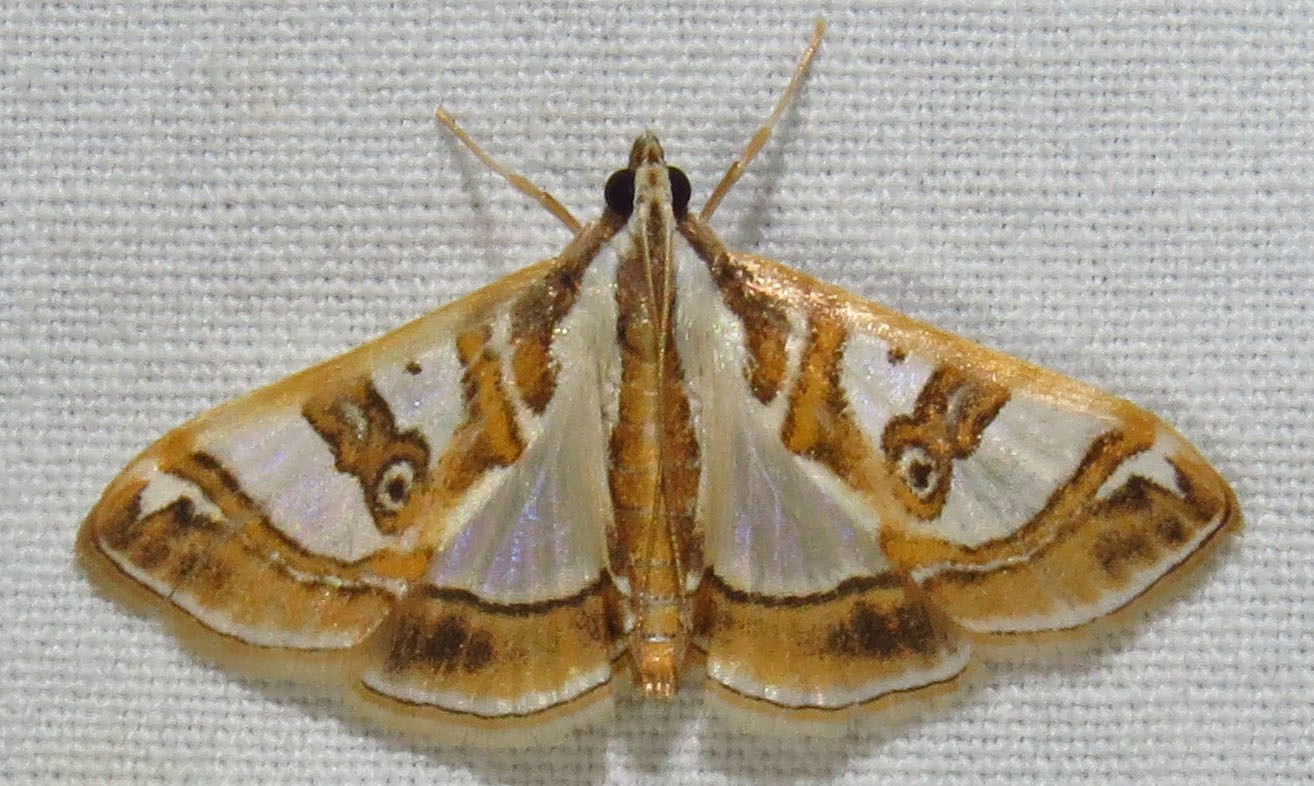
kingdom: Animalia
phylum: Arthropoda
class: Insecta
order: Lepidoptera
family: Crambidae
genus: Glyphodes
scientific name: Glyphodes pyloalis
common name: Lesser mulberry snout moth
